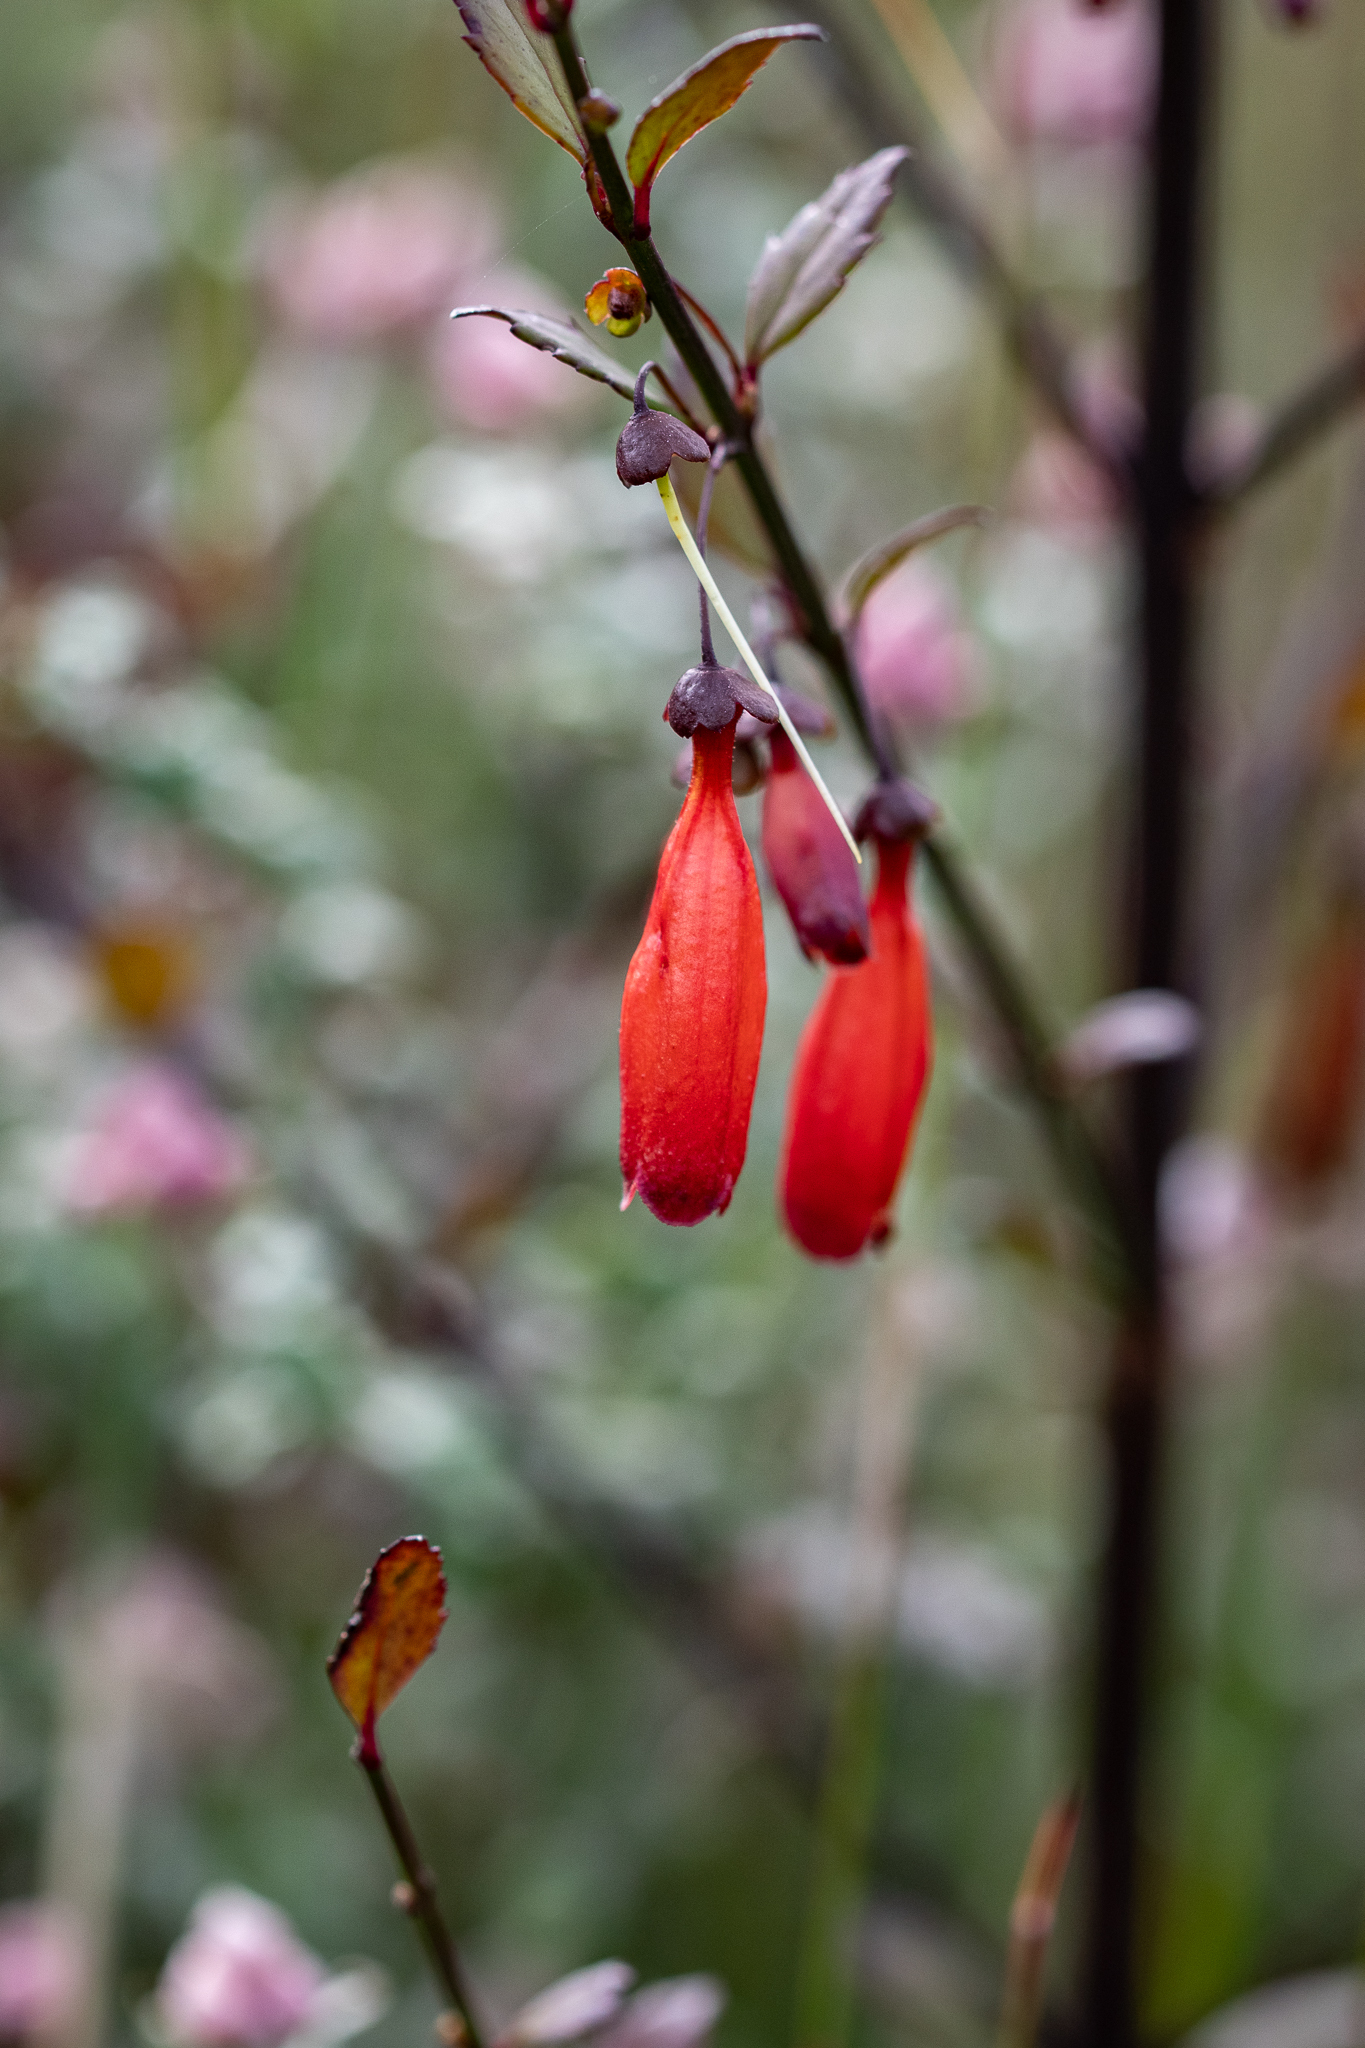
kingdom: Plantae
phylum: Tracheophyta
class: Magnoliopsida
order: Lamiales
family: Stilbaceae
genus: Halleria
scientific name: Halleria elliptica
